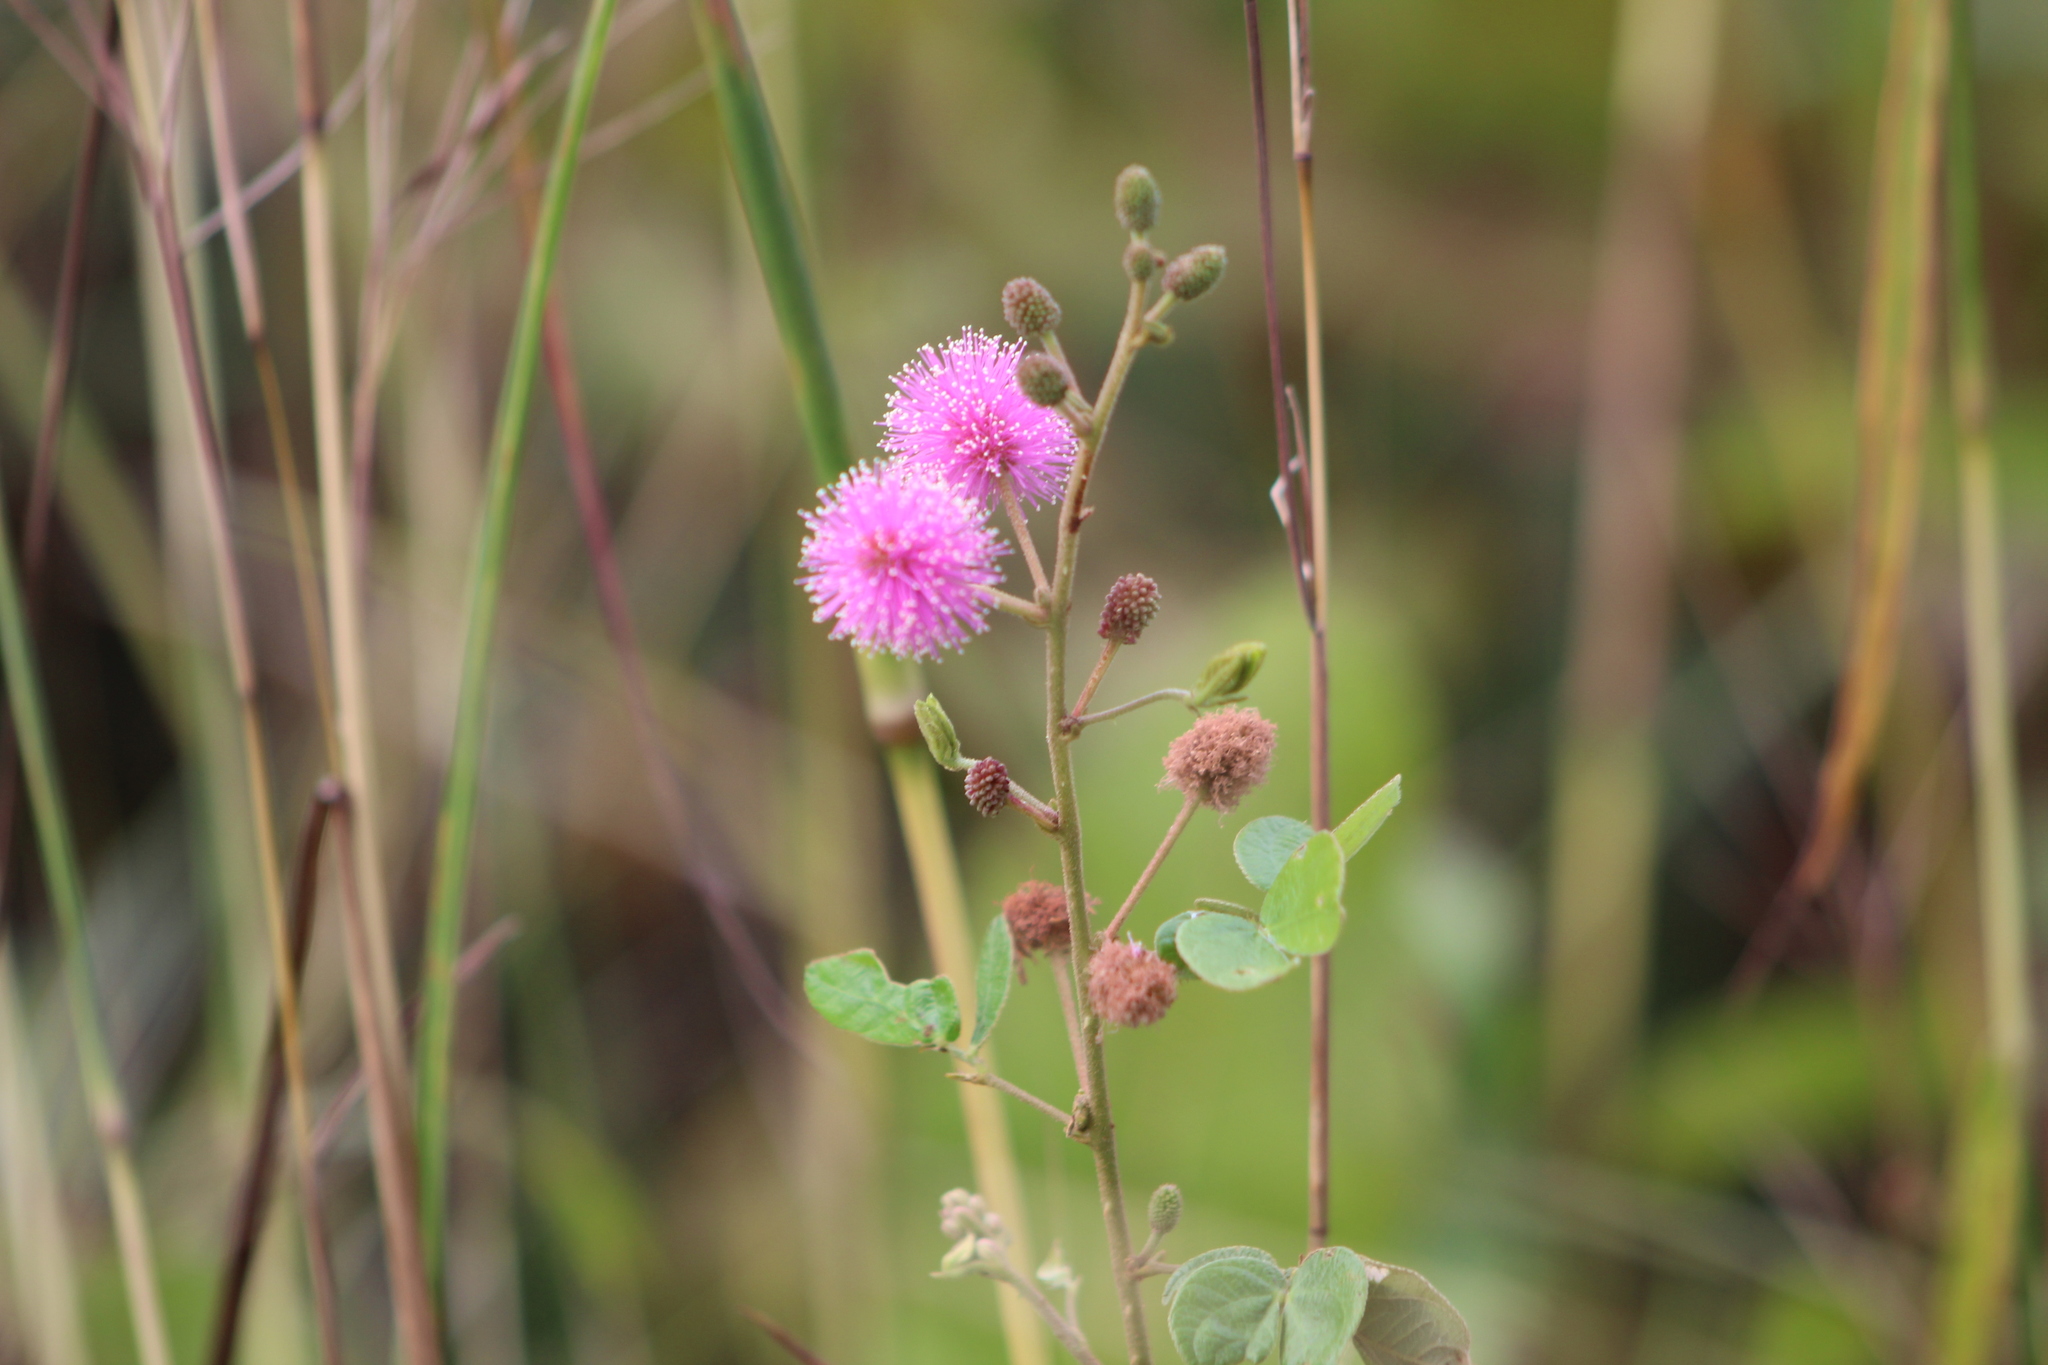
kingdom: Plantae
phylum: Tracheophyta
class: Magnoliopsida
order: Fabales
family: Fabaceae
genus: Mimosa
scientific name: Mimosa albida
